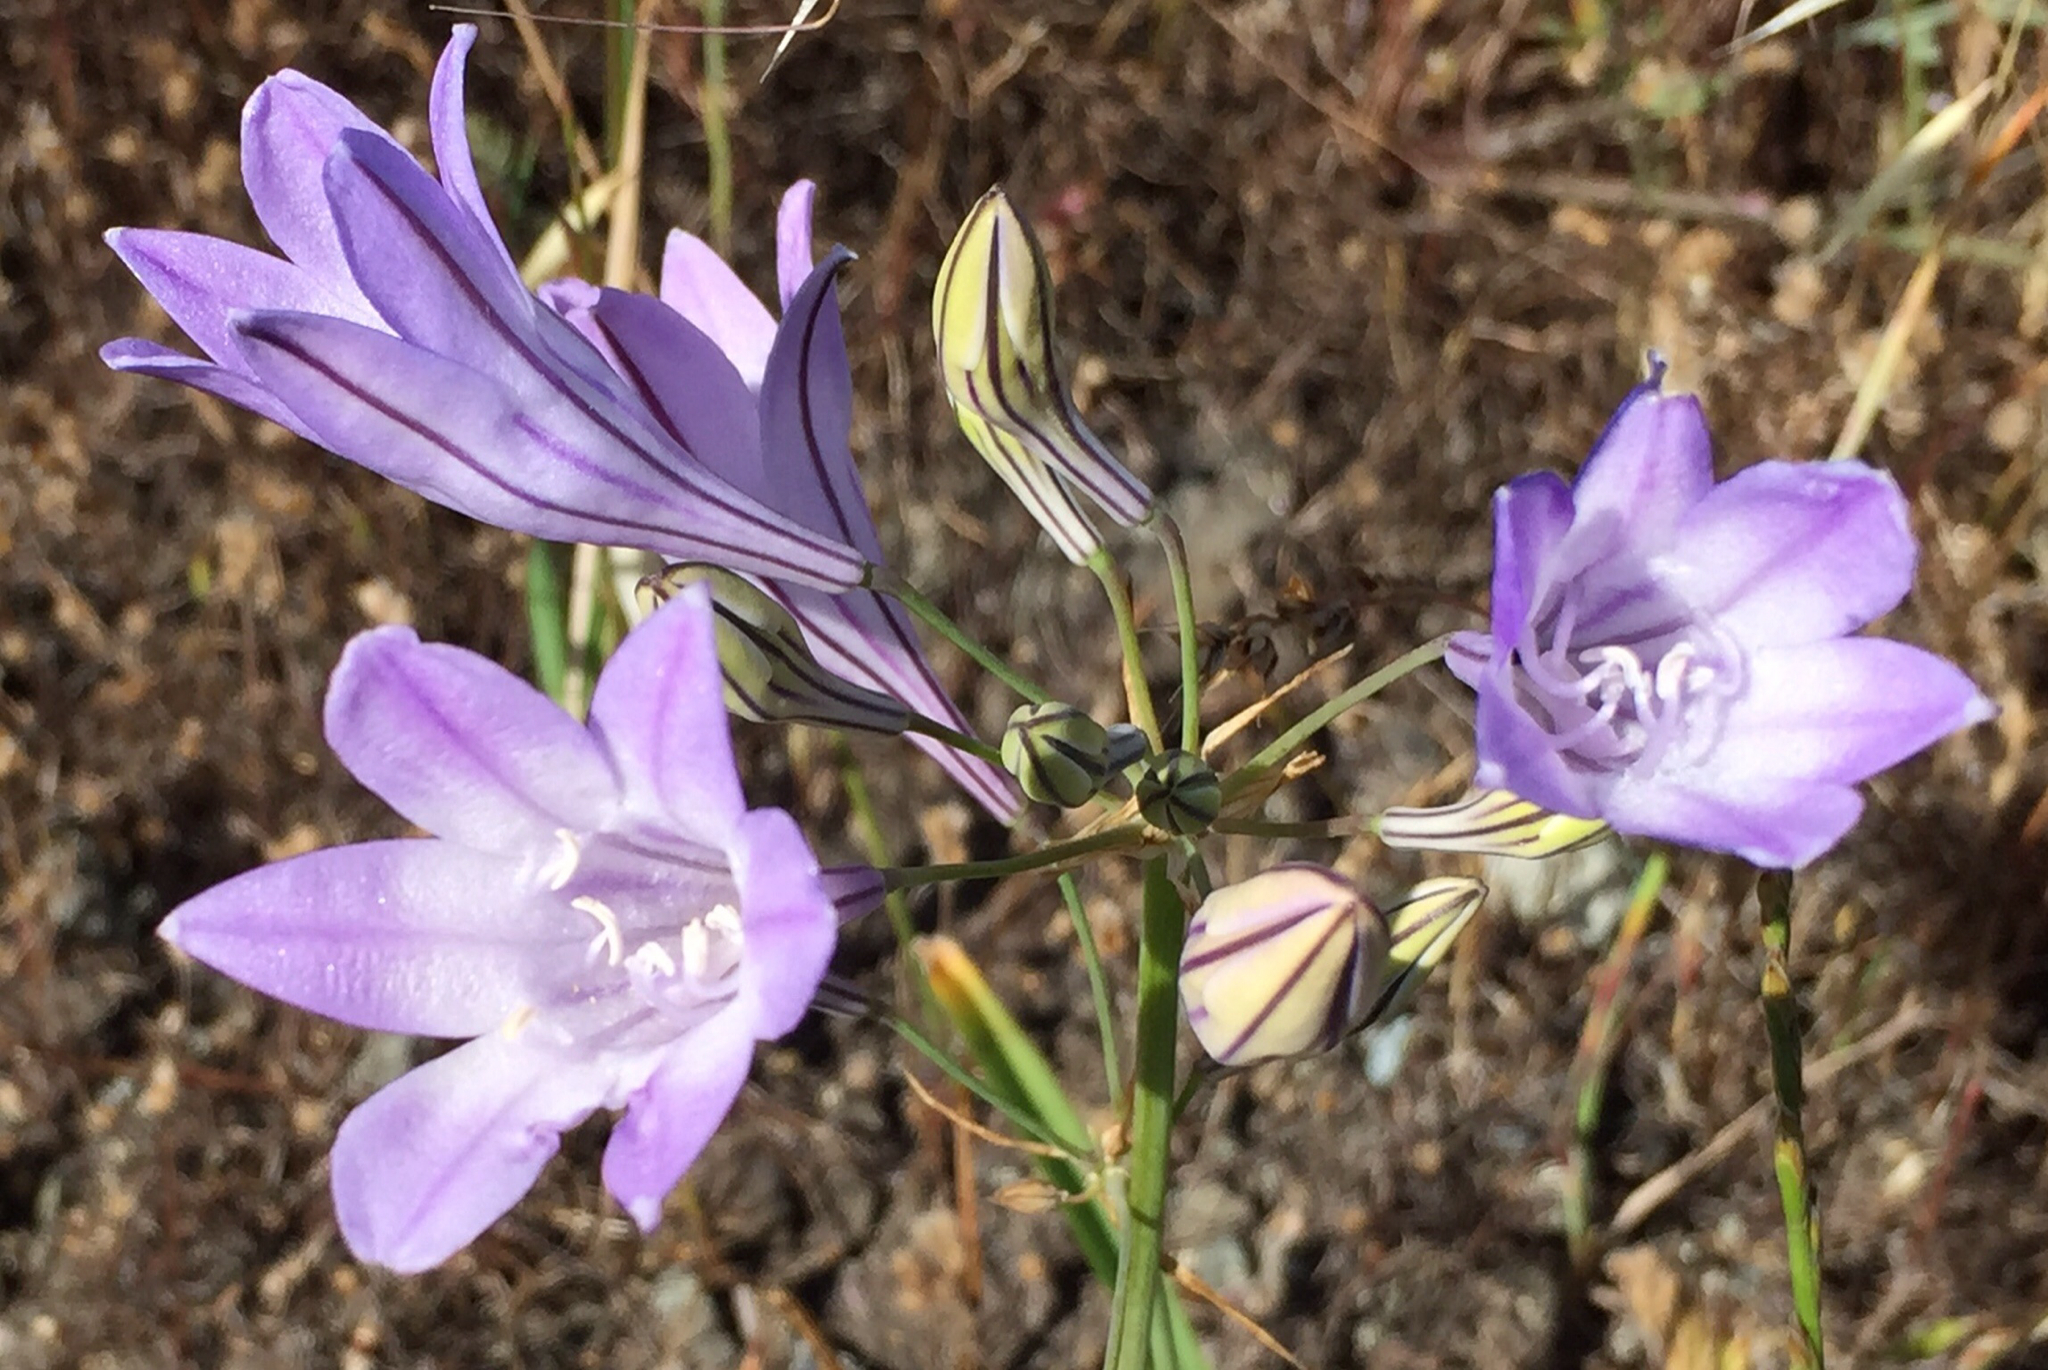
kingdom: Plantae
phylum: Tracheophyta
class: Liliopsida
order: Asparagales
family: Asparagaceae
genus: Triteleia
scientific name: Triteleia laxa
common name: Triplet-lily
